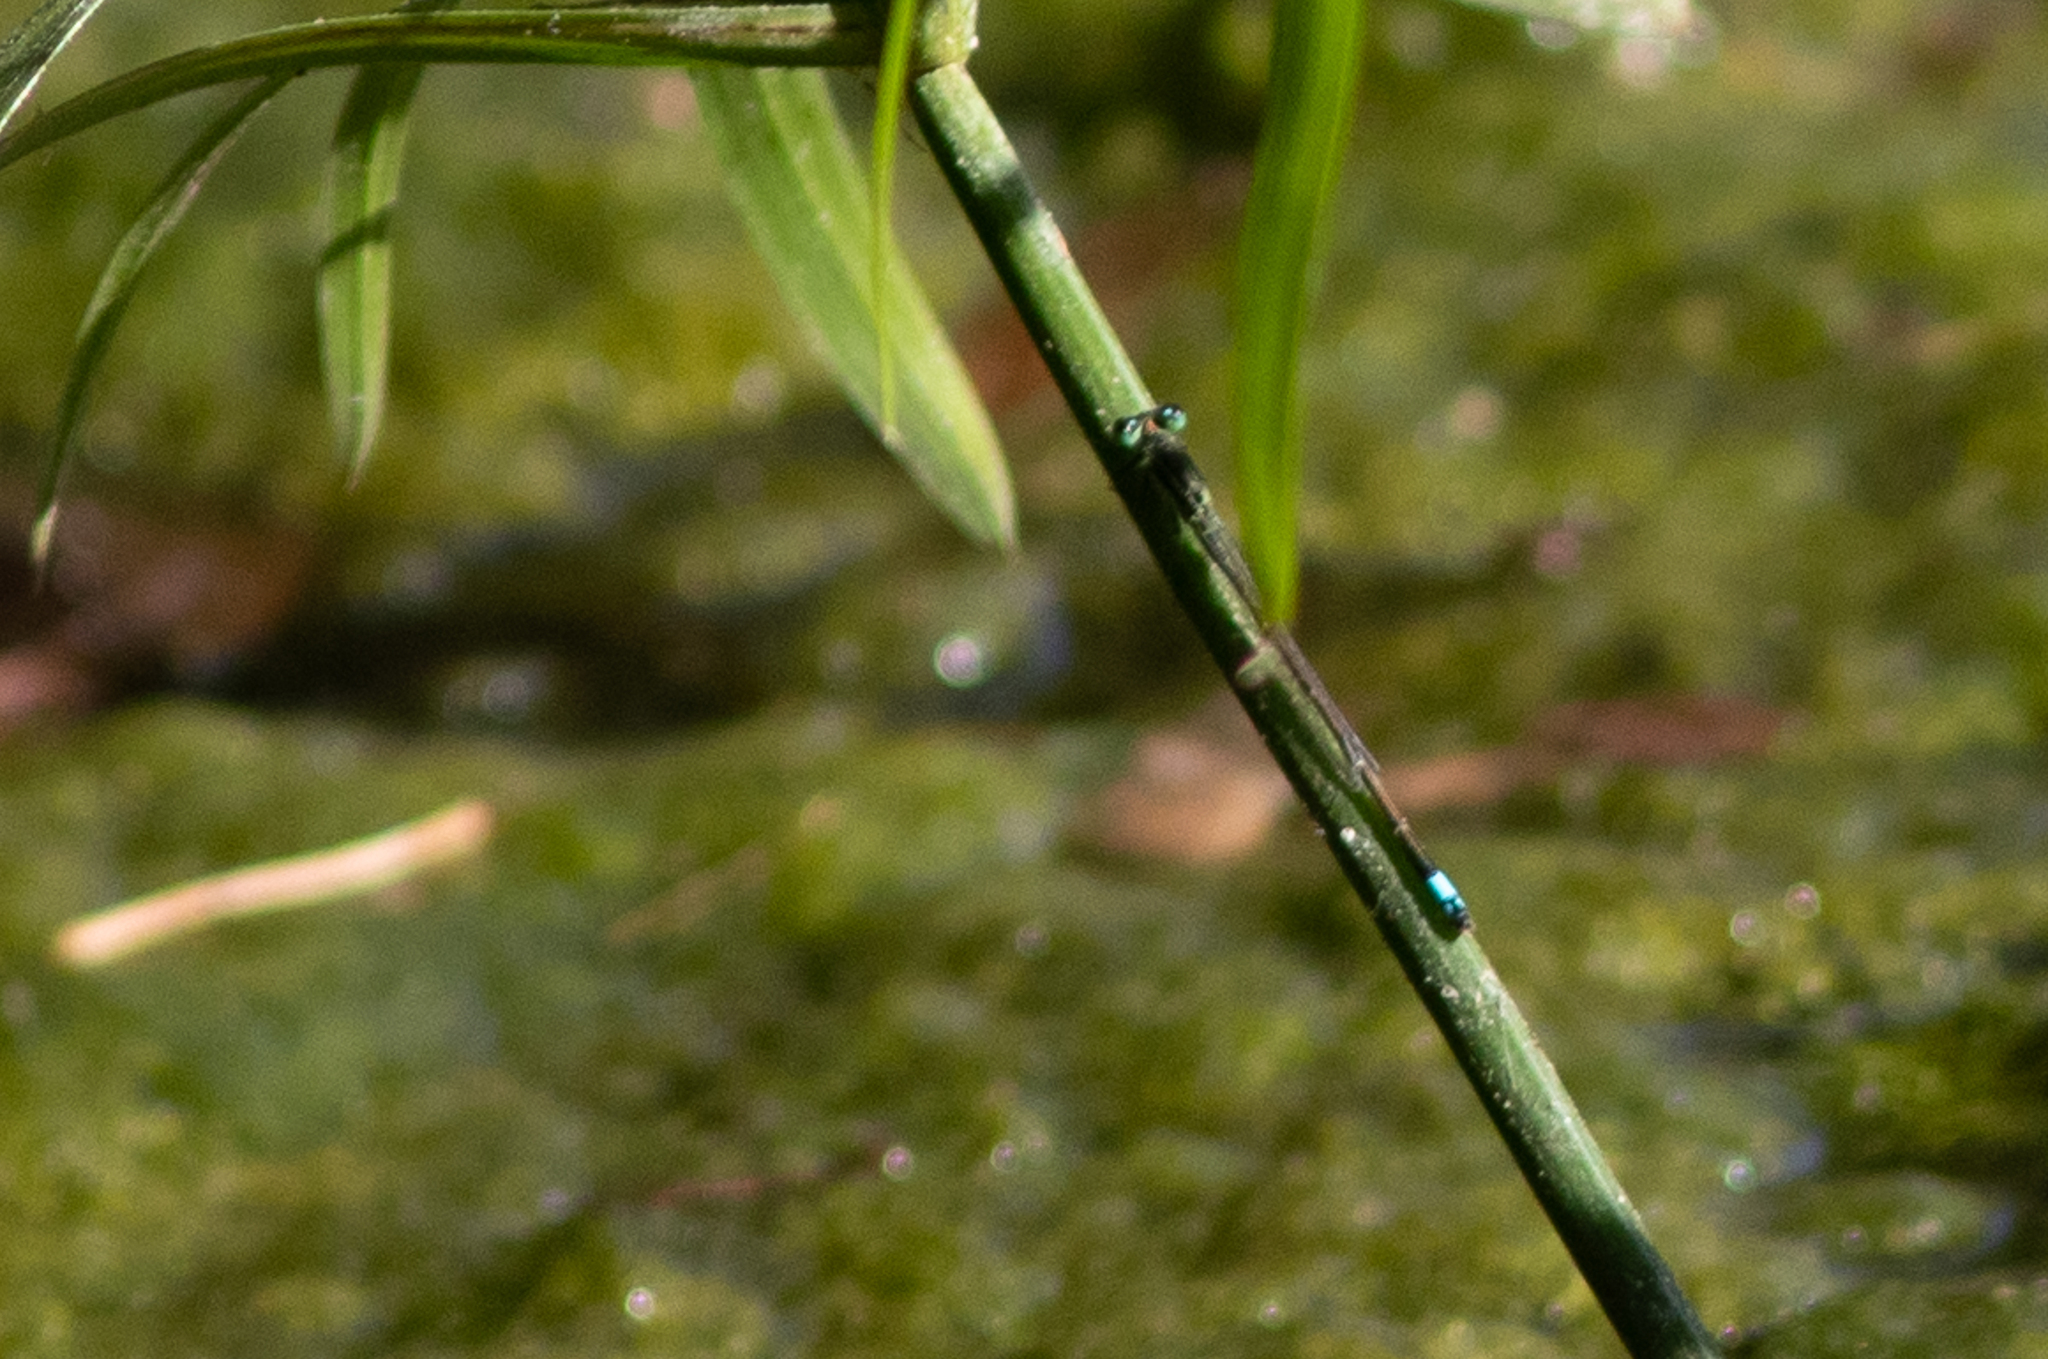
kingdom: Animalia
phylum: Arthropoda
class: Insecta
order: Odonata
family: Coenagrionidae
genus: Ischnura
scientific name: Ischnura ramburii
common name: Rambur's forktail
